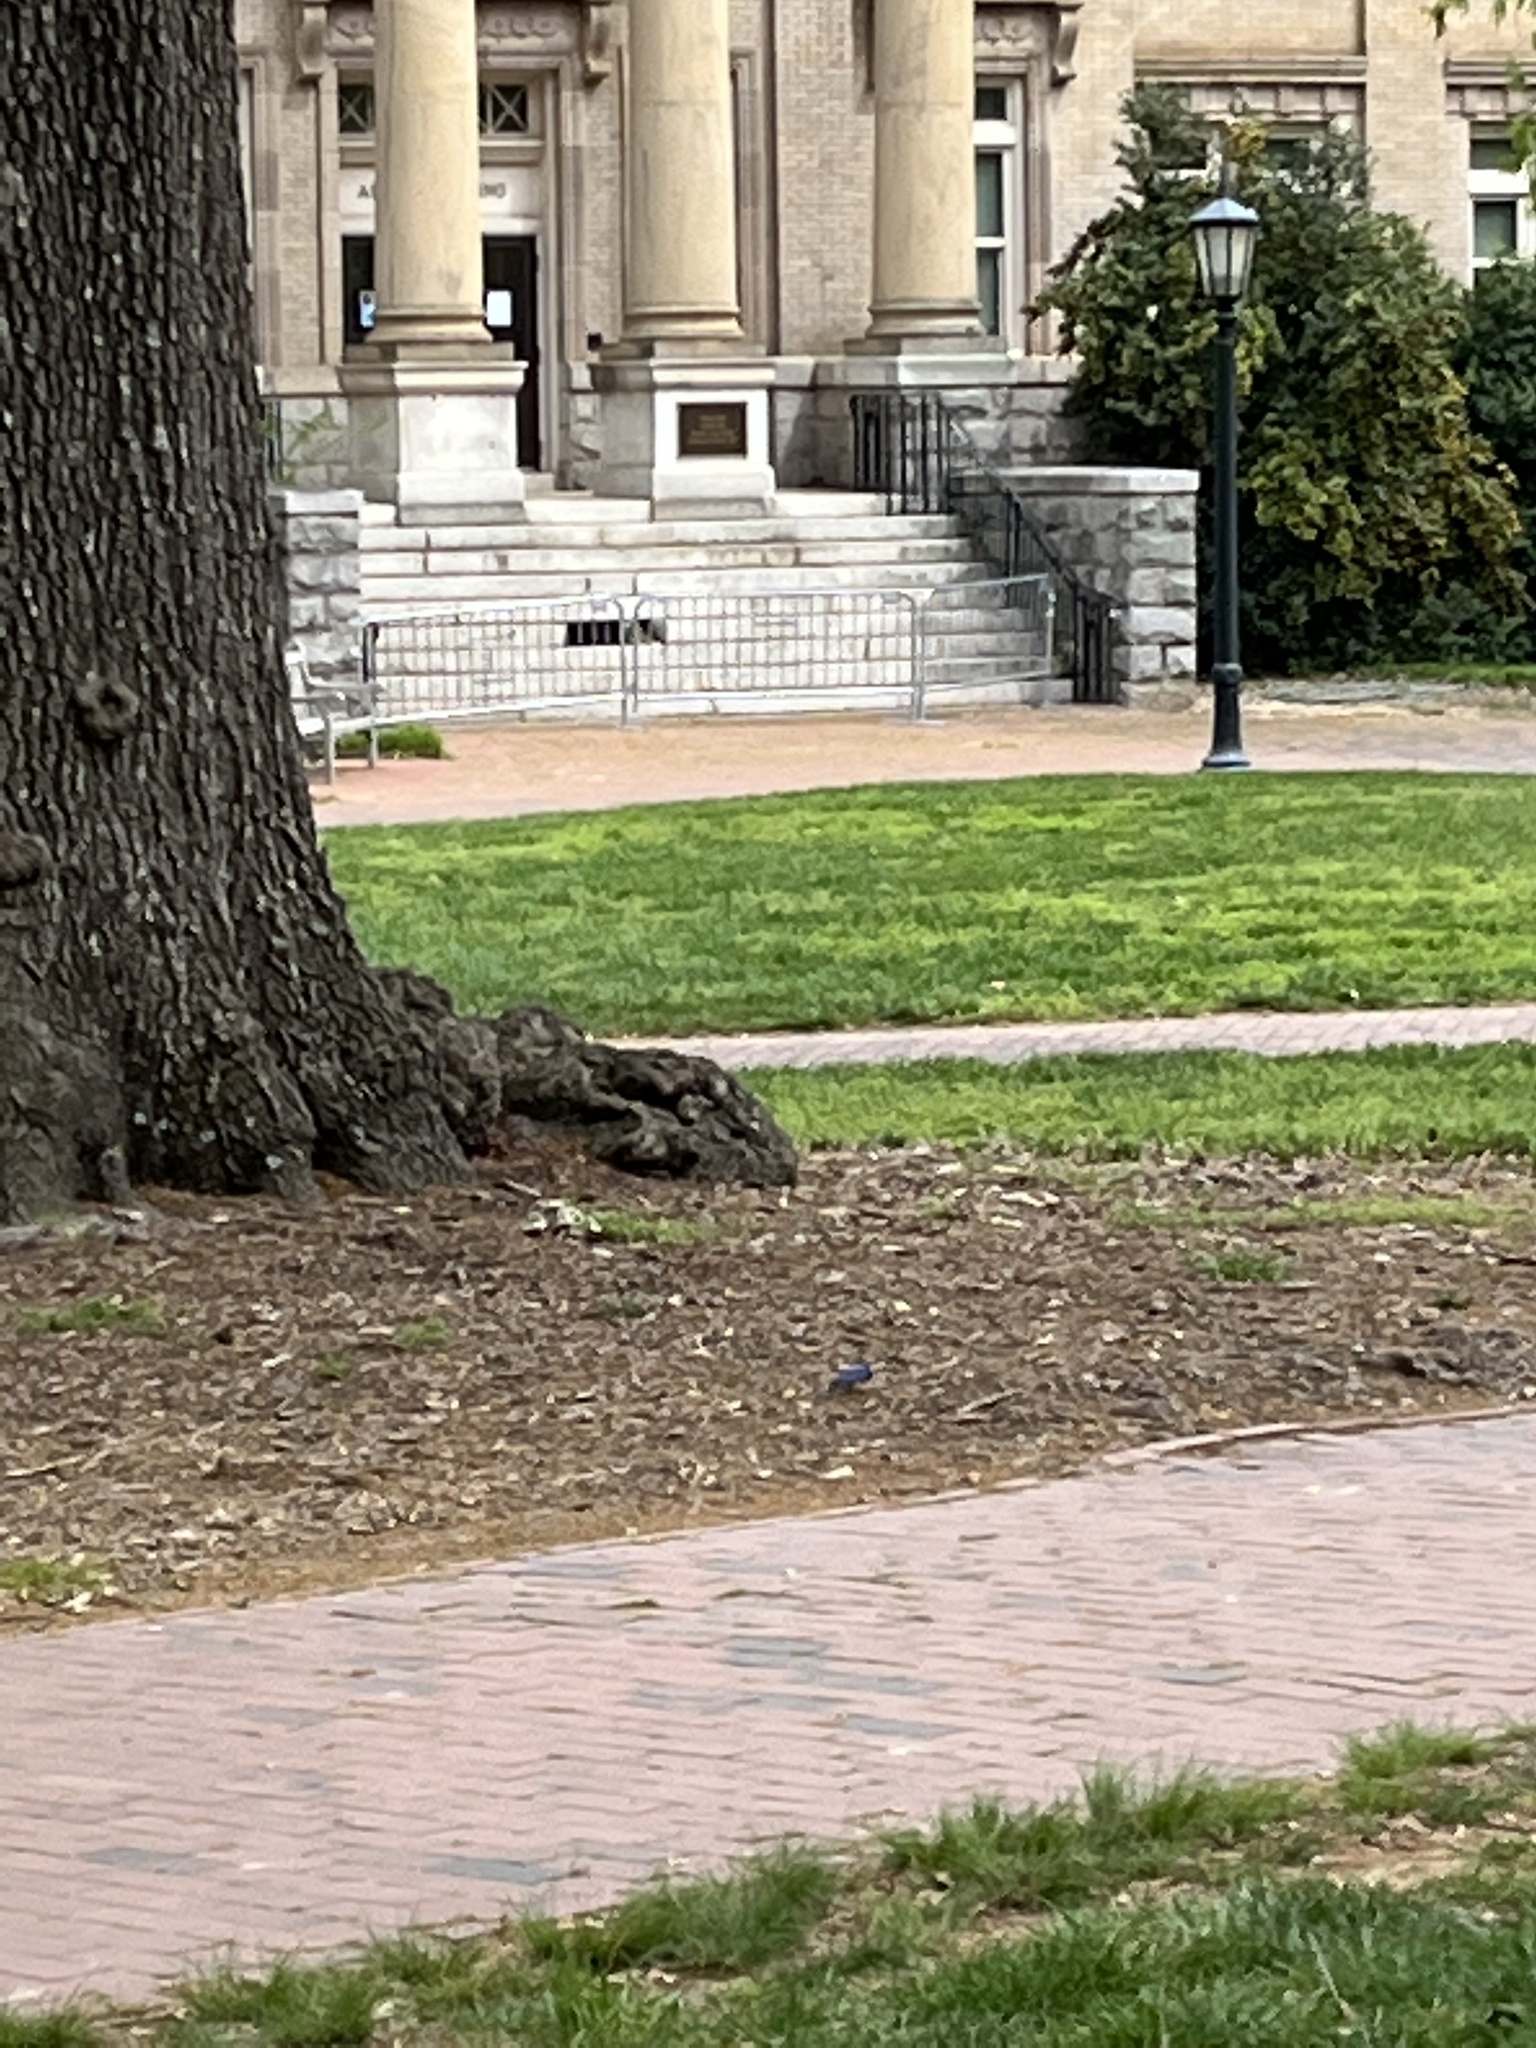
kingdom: Animalia
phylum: Chordata
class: Aves
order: Passeriformes
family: Turdidae
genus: Sialia
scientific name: Sialia sialis
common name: Eastern bluebird
